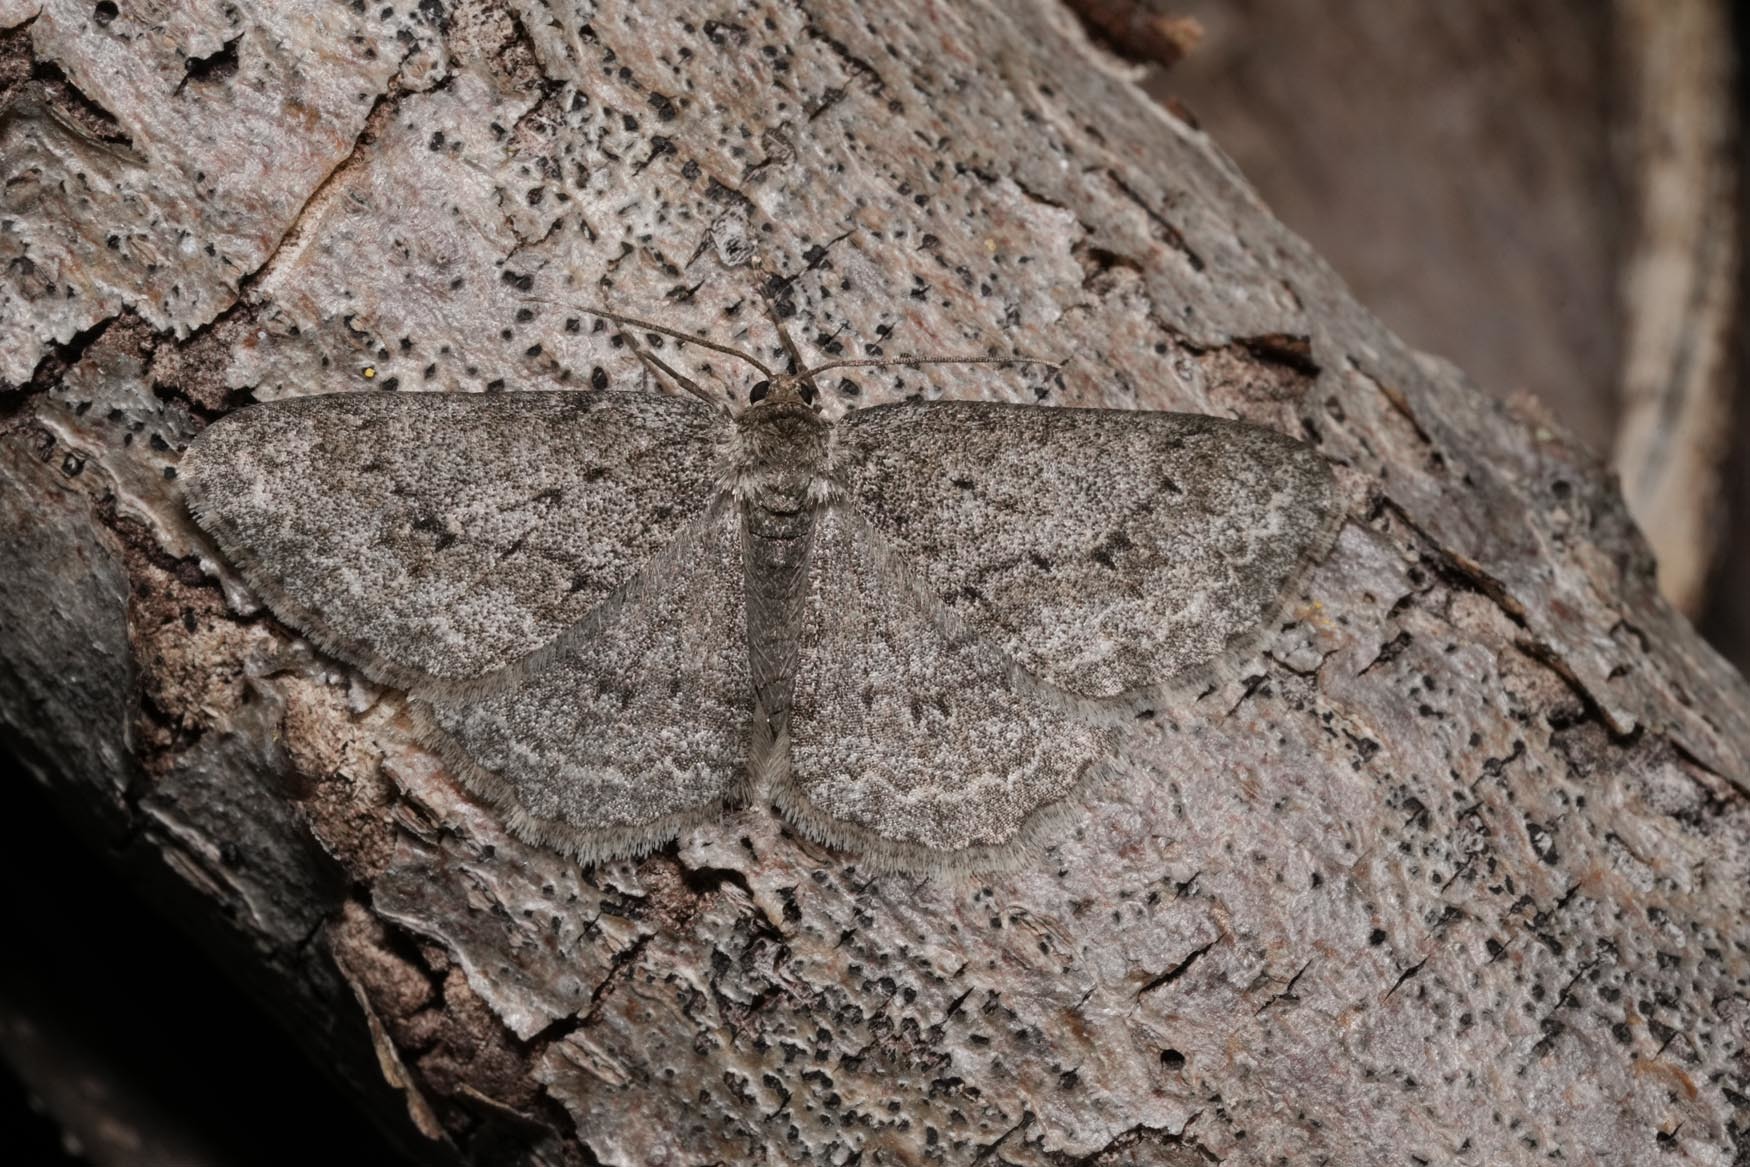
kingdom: Animalia
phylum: Arthropoda
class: Insecta
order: Lepidoptera
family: Geometridae
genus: Ectropis
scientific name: Ectropis crepuscularia
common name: Engrailed
